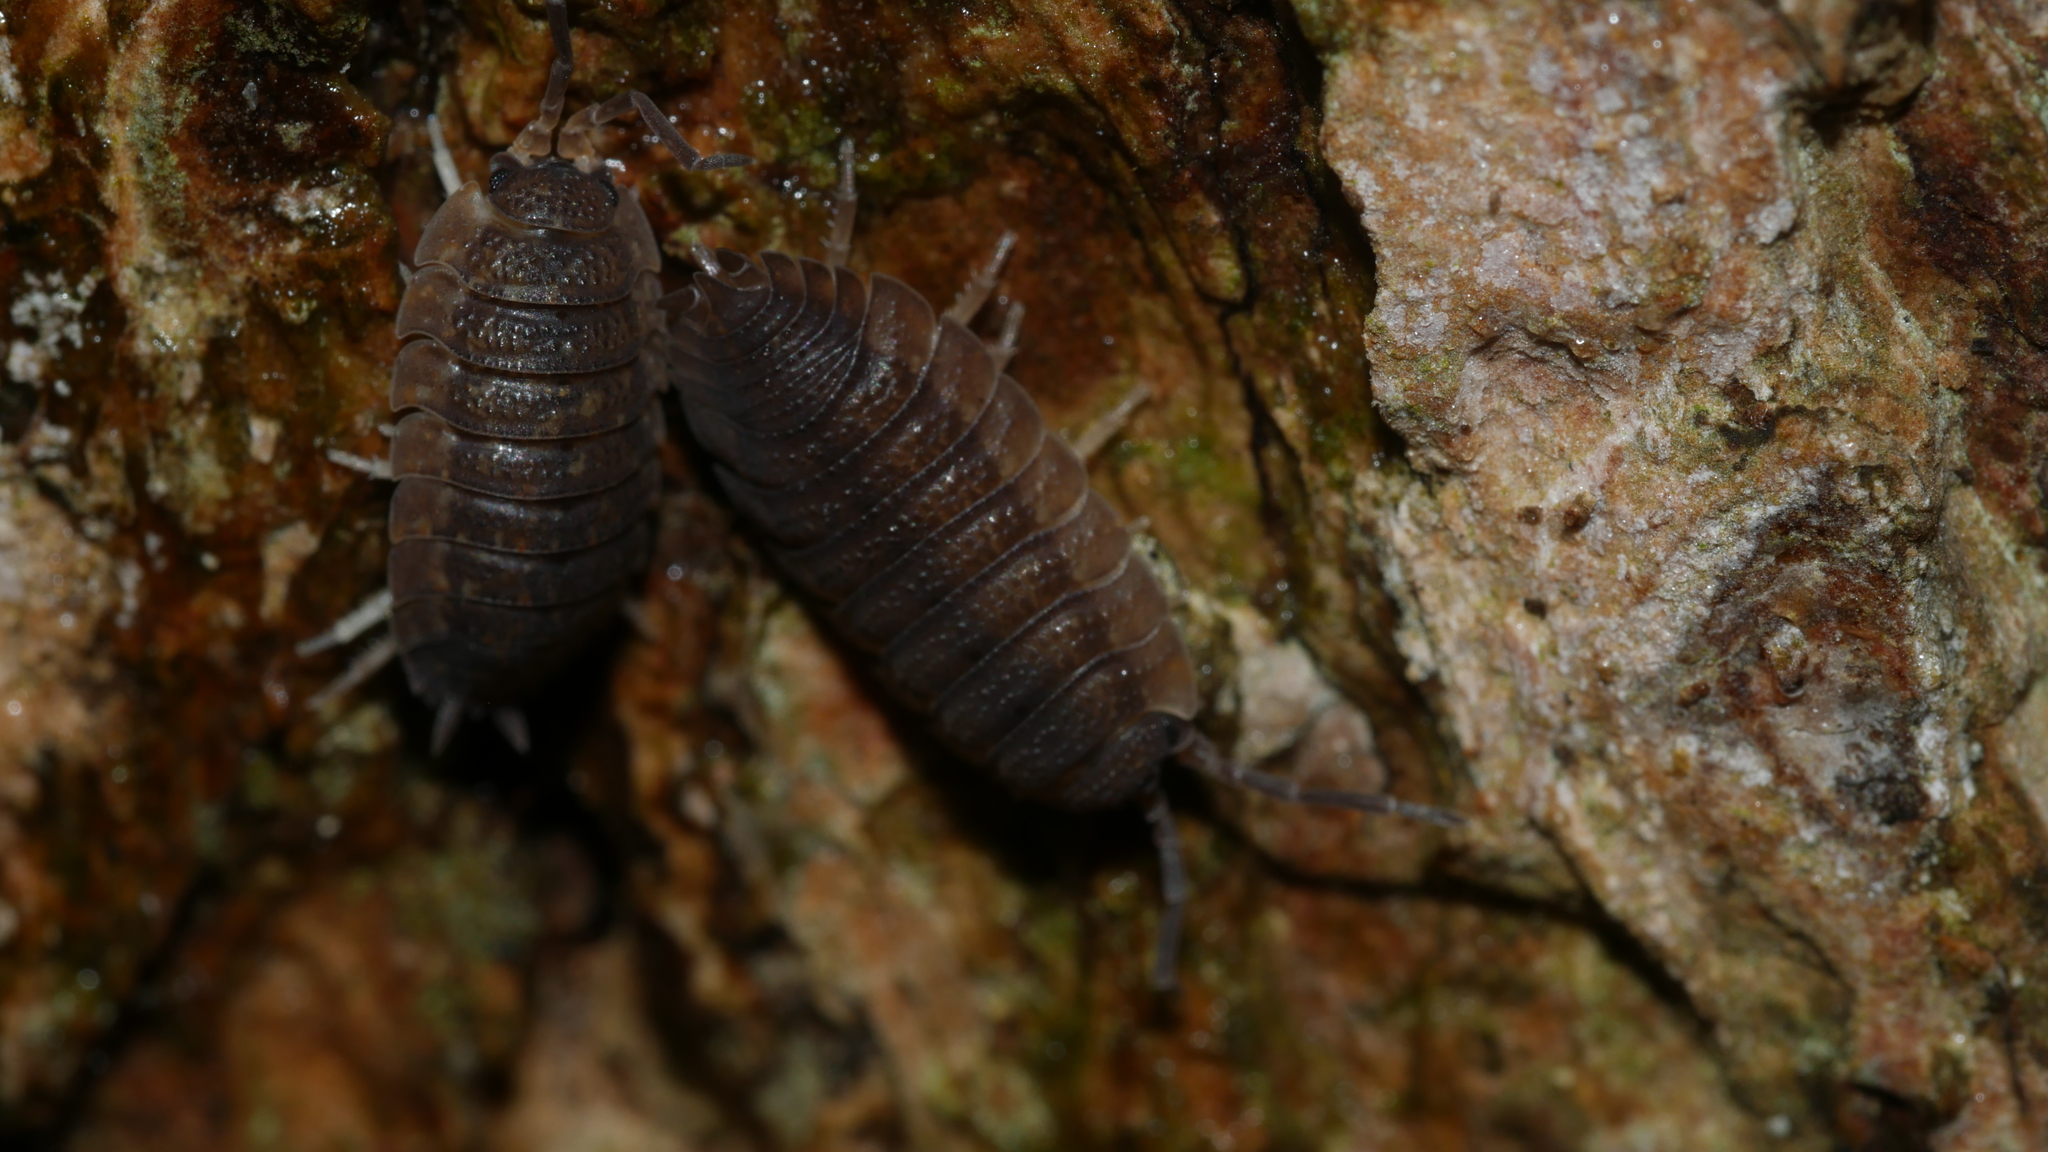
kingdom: Animalia
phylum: Arthropoda
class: Malacostraca
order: Isopoda
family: Porcellionidae
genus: Porcellio
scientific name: Porcellio scaber
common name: Common rough woodlouse
